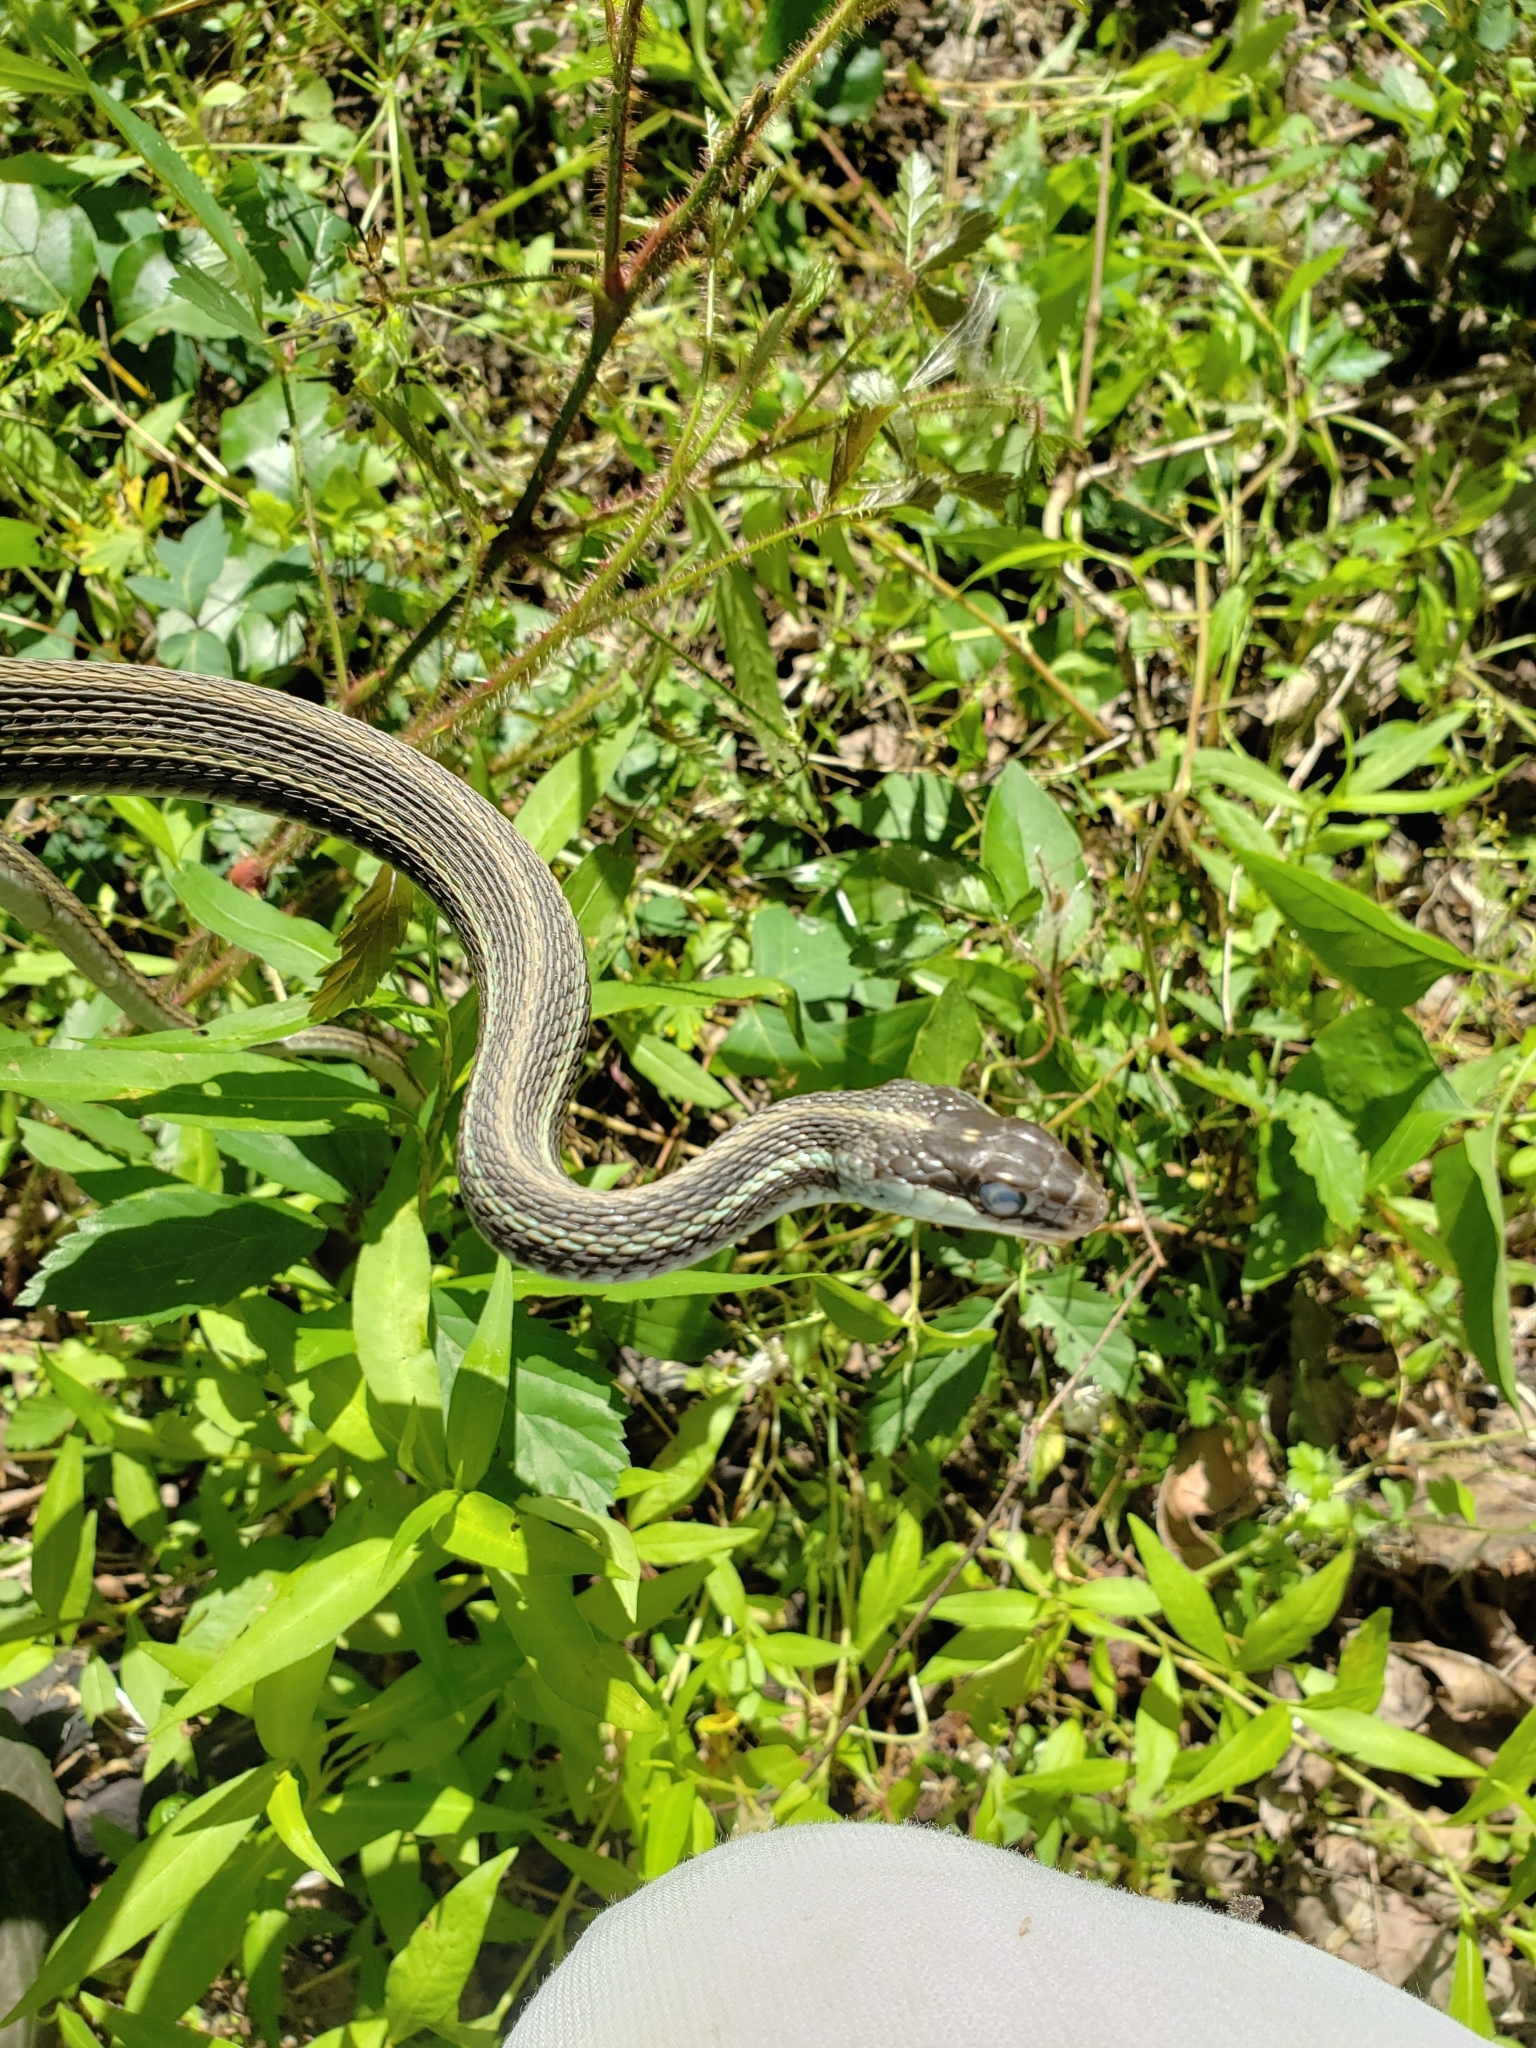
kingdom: Animalia
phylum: Chordata
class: Squamata
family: Colubridae
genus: Thamnophis
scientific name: Thamnophis proximus
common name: Western ribbon snake
